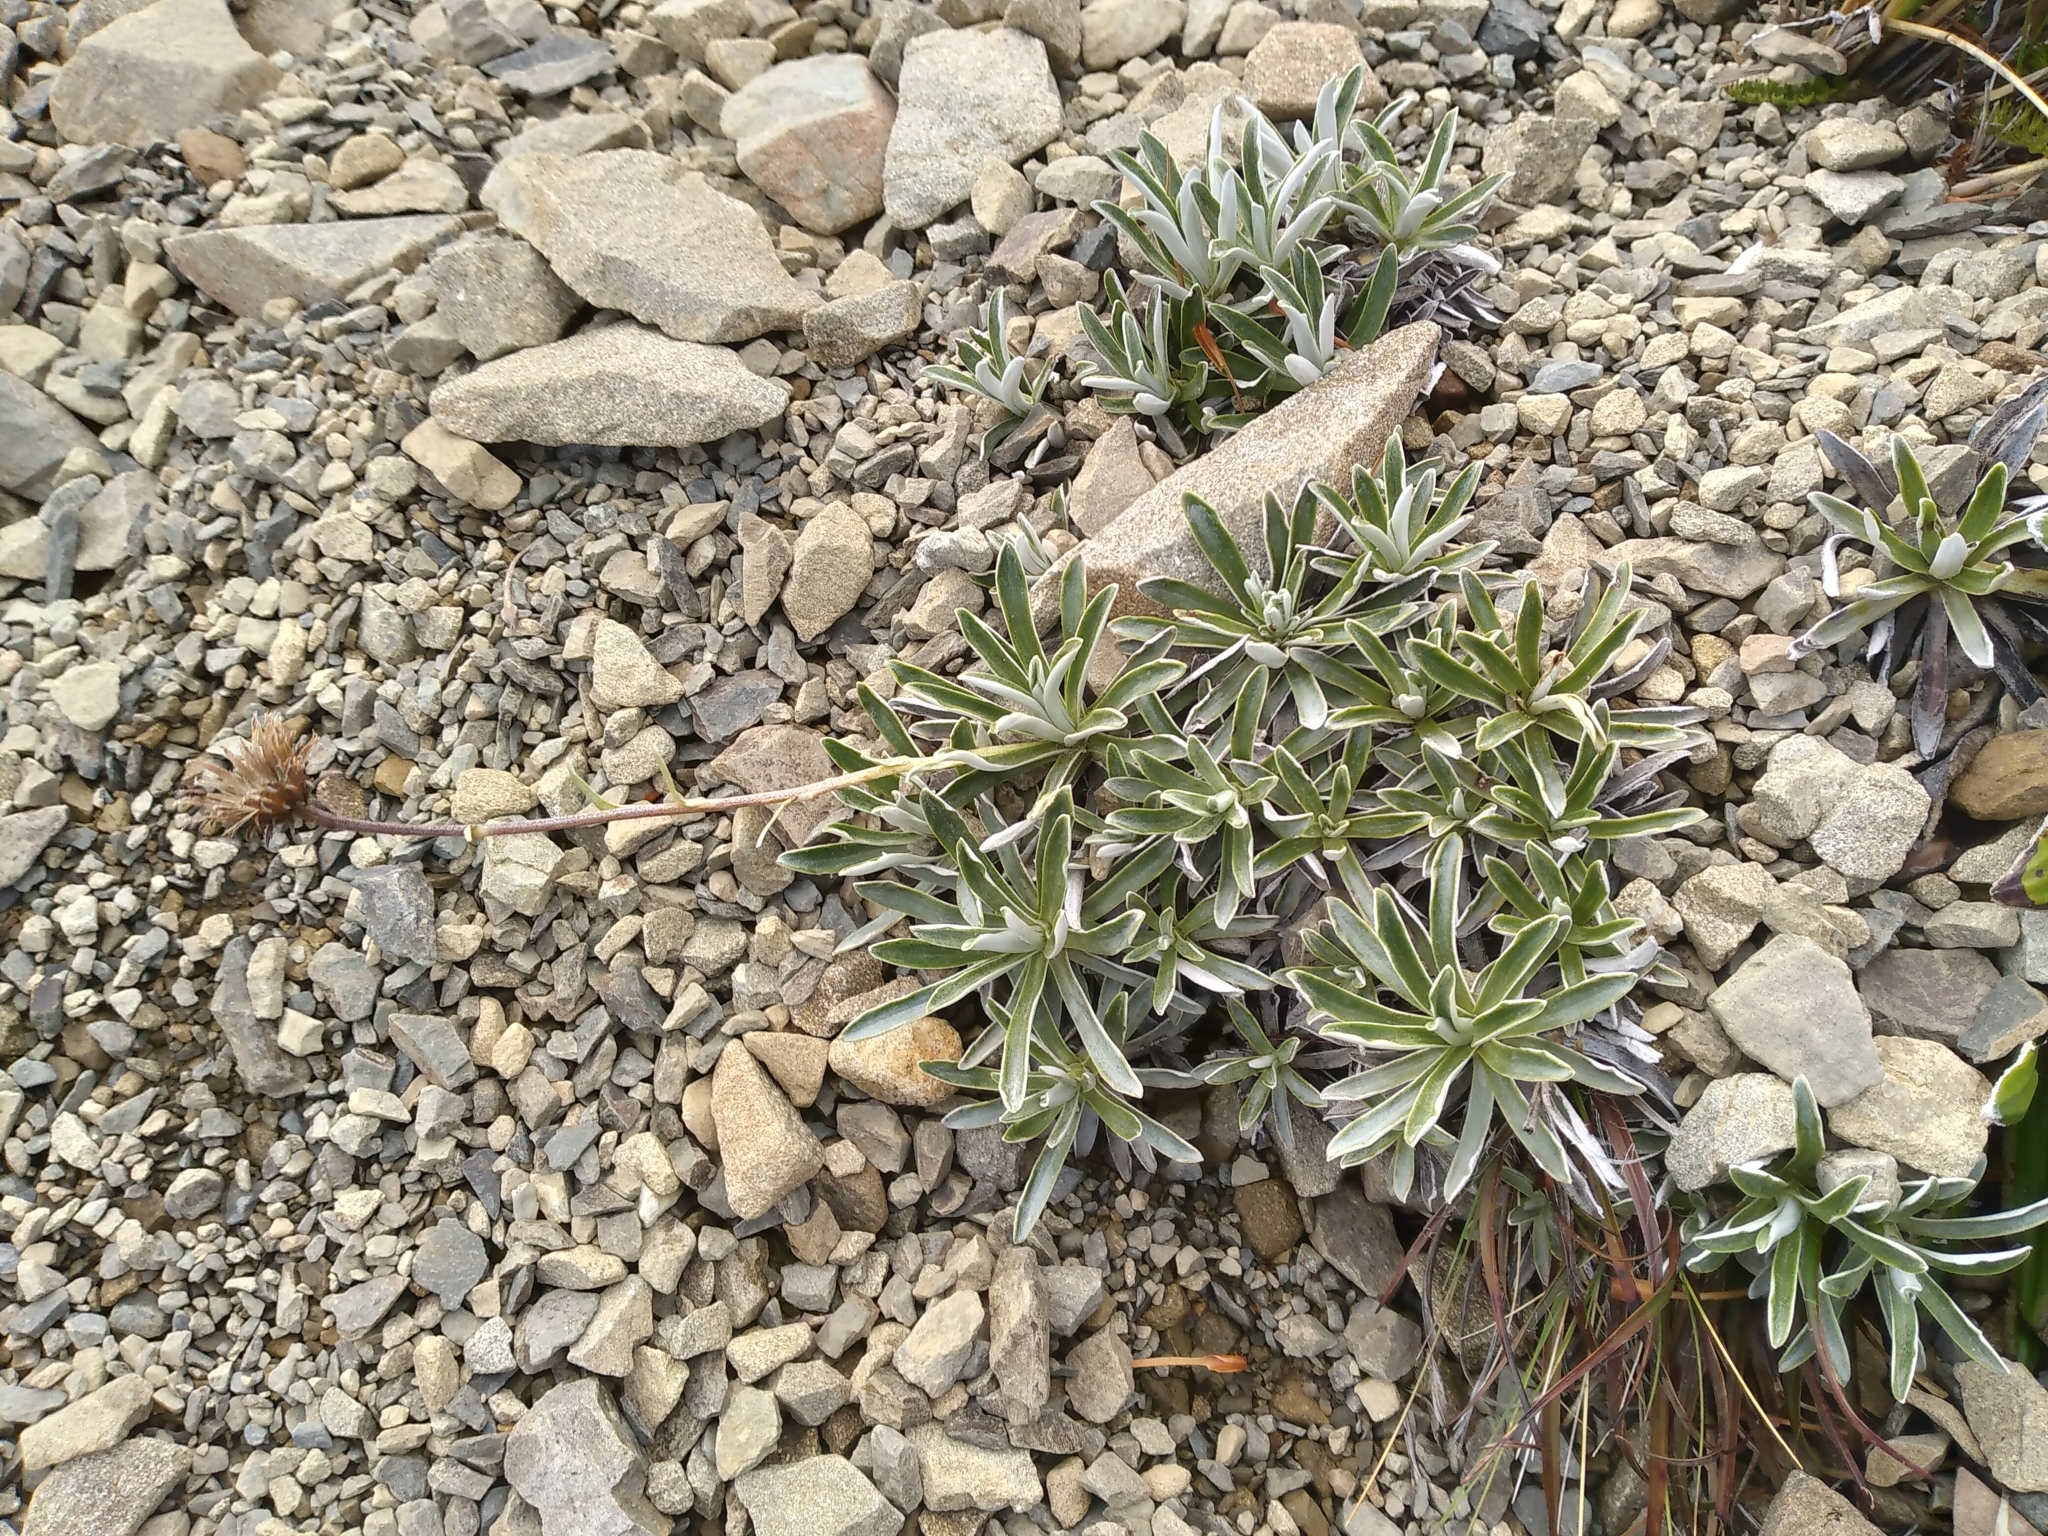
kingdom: Plantae
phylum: Tracheophyta
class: Magnoliopsida
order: Asterales
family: Asteraceae
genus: Celmisia
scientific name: Celmisia angustifolia
